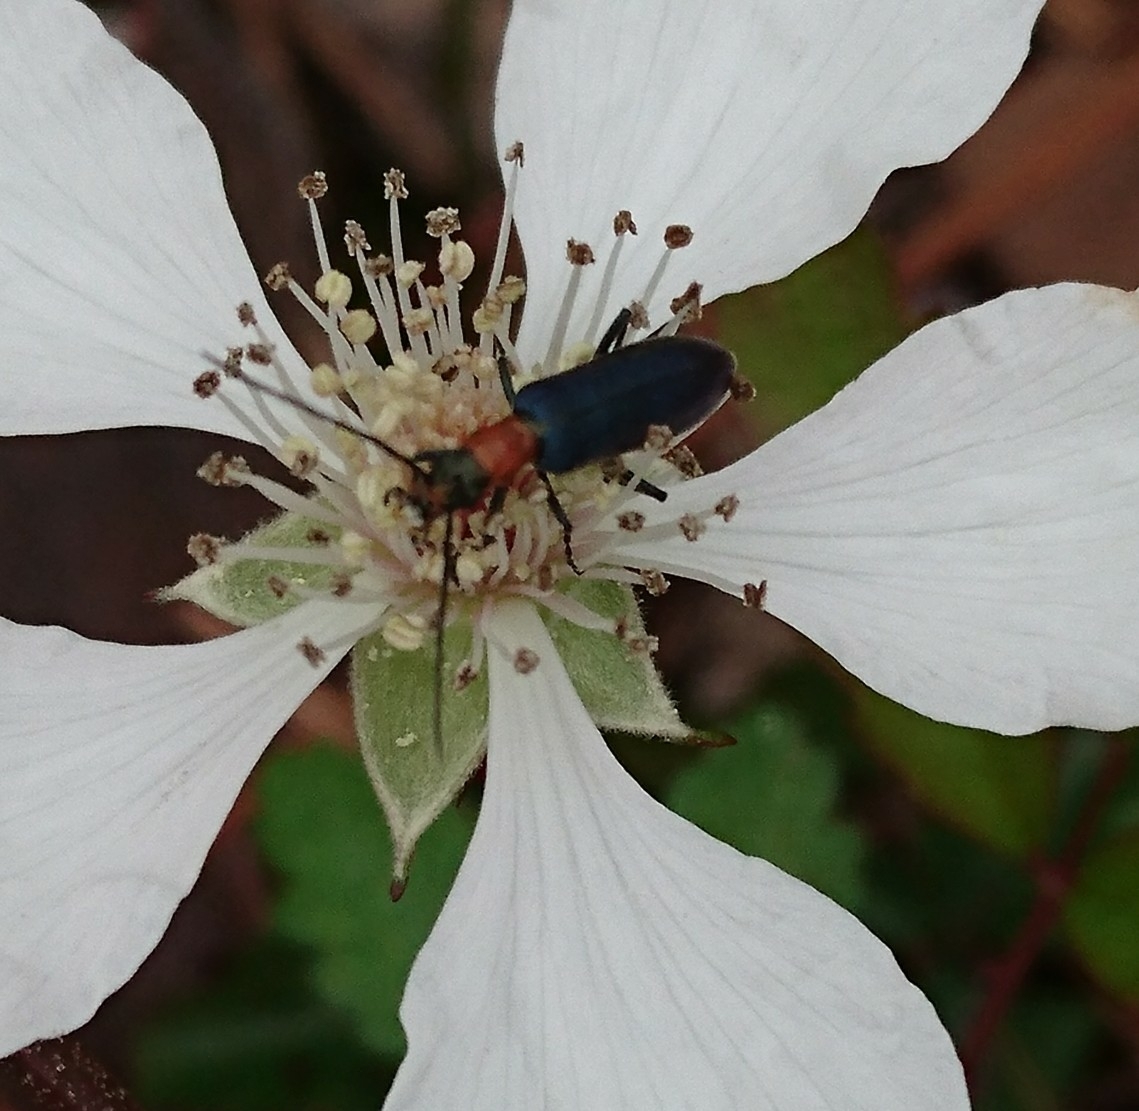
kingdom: Animalia
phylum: Arthropoda
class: Insecta
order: Coleoptera
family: Oedemeridae
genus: Heliocis
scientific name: Heliocis repanda
